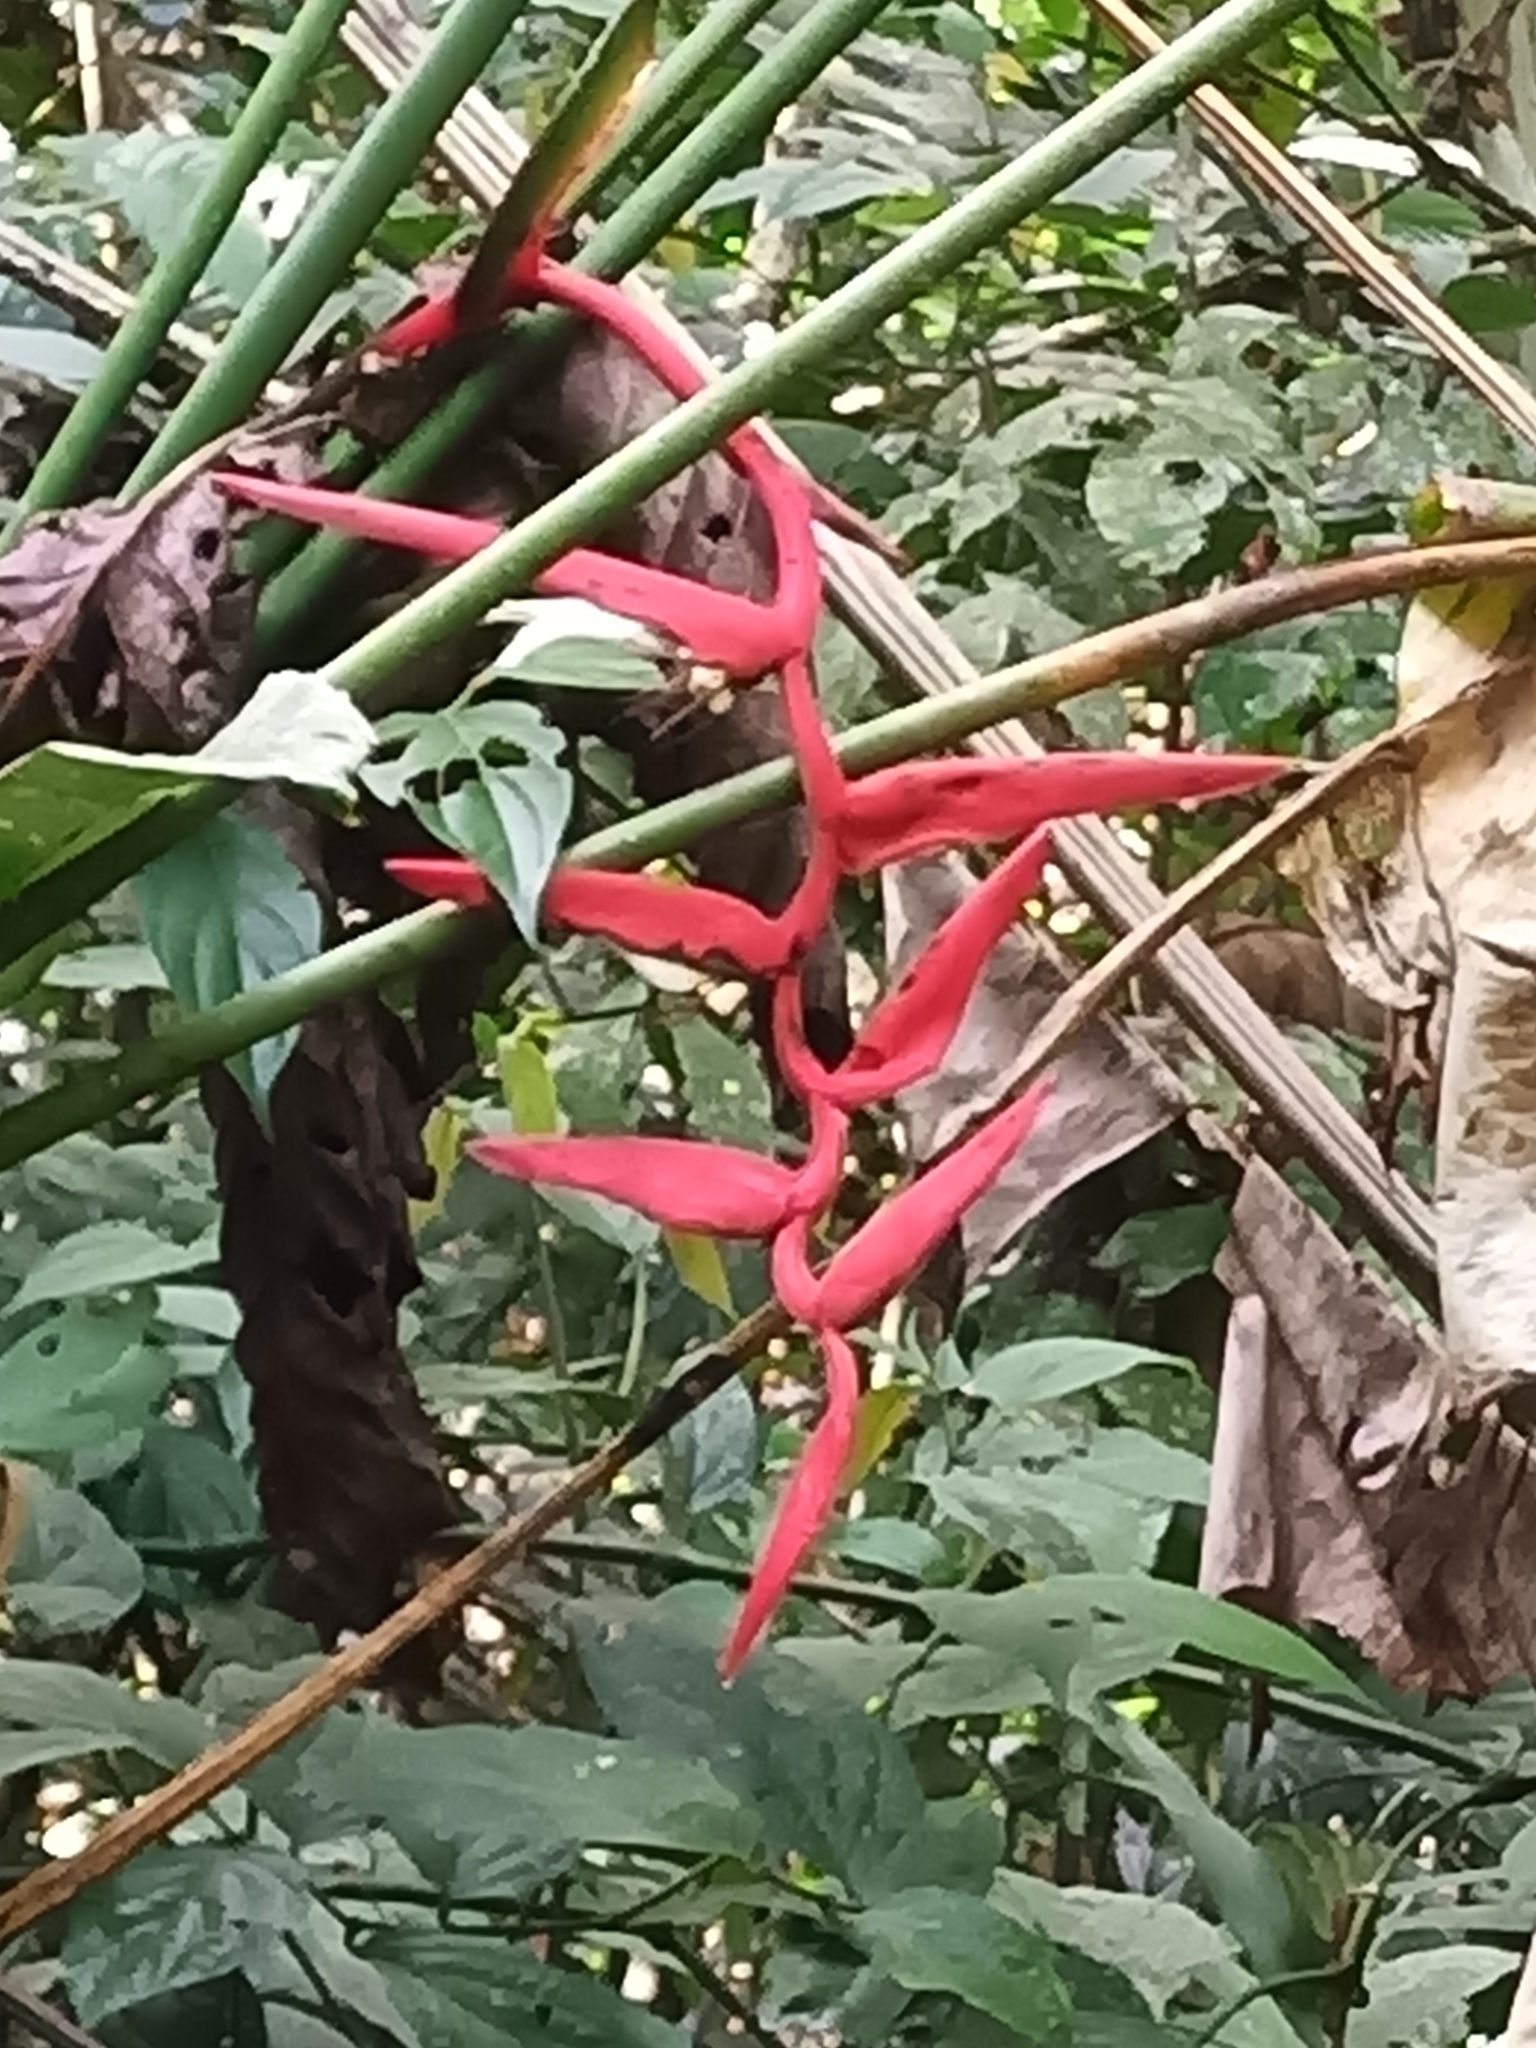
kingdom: Plantae
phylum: Tracheophyta
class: Liliopsida
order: Zingiberales
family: Heliconiaceae
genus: Heliconia
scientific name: Heliconia pendula
